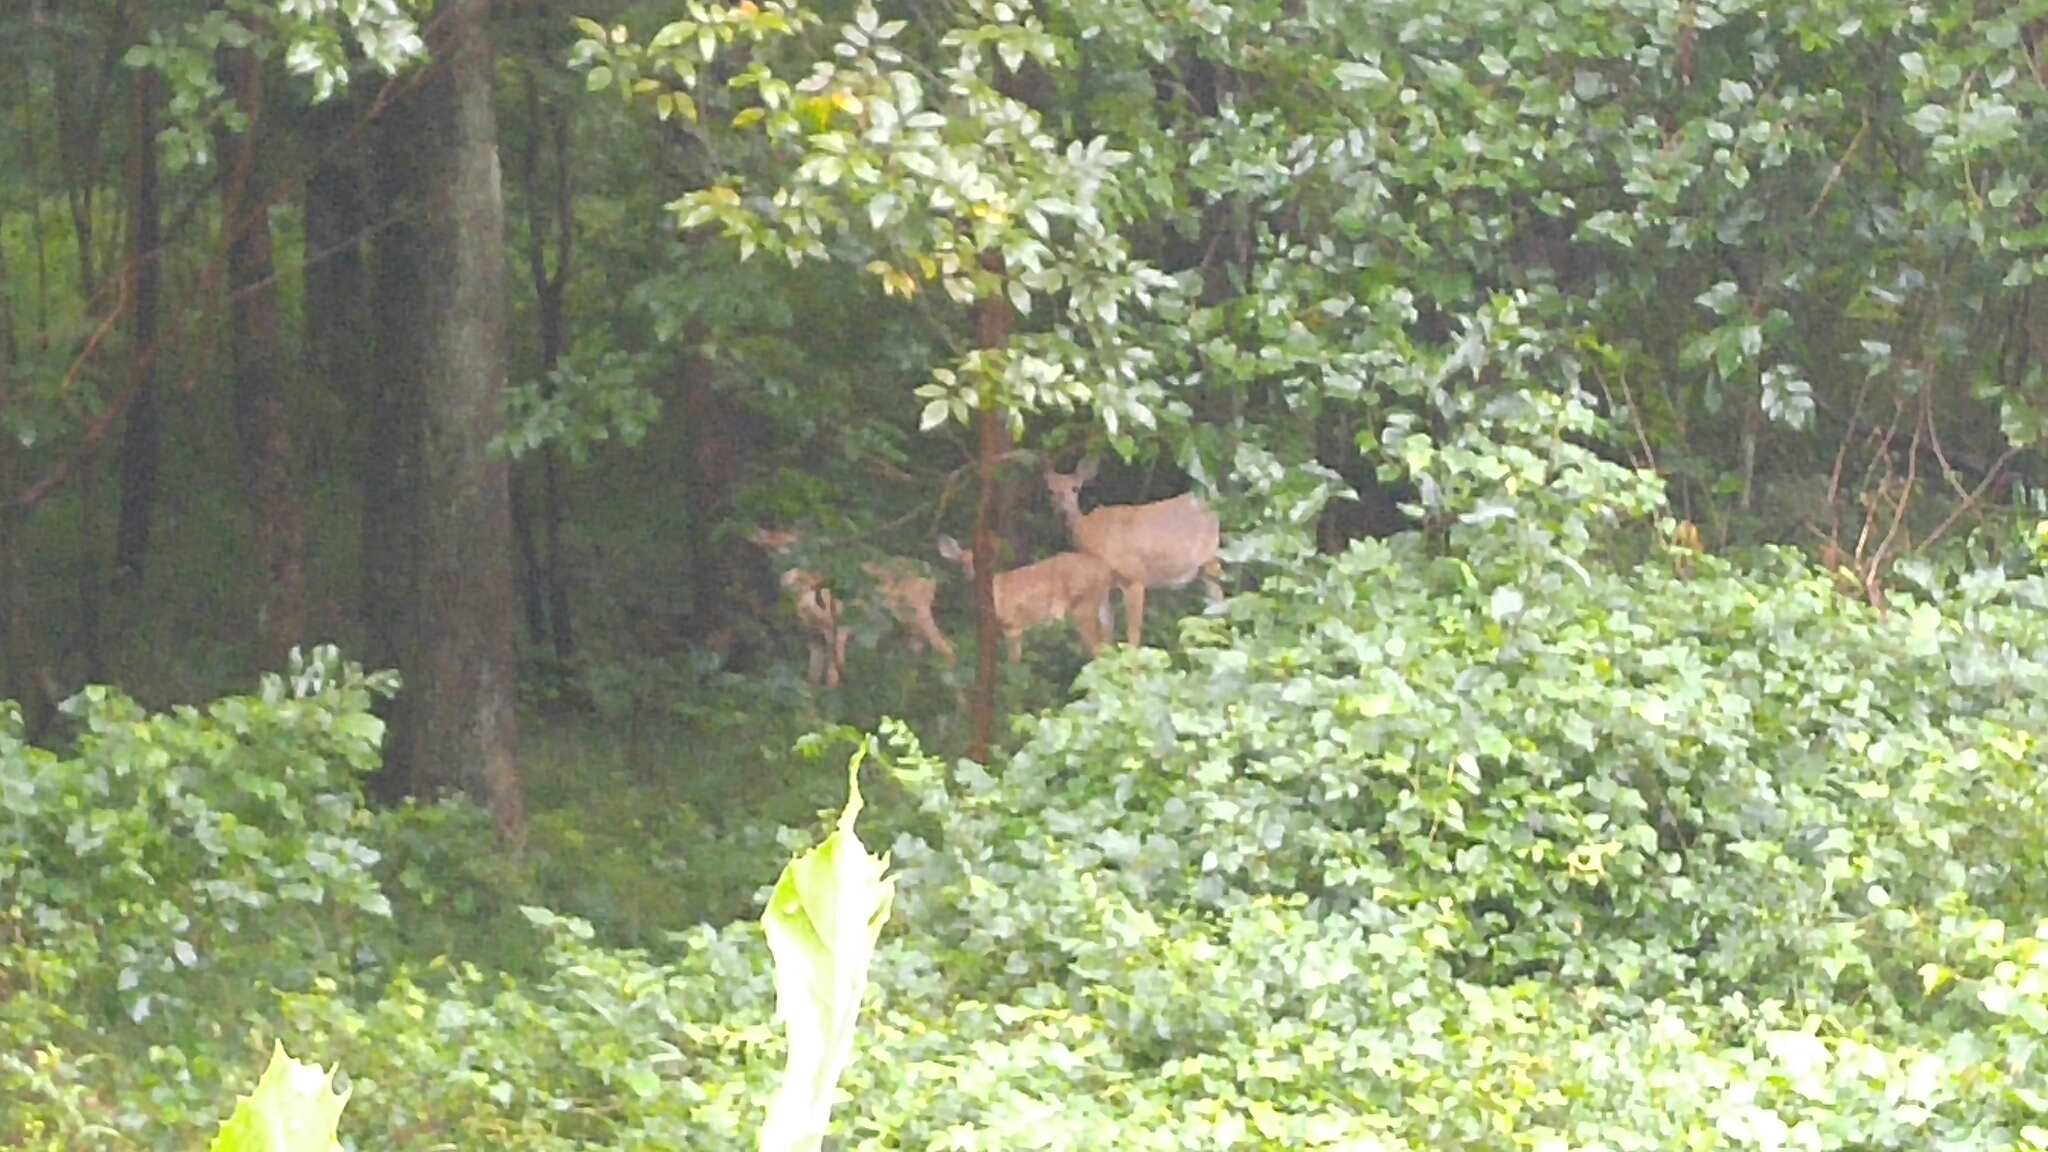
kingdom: Animalia
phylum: Chordata
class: Mammalia
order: Artiodactyla
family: Cervidae
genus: Odocoileus
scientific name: Odocoileus virginianus
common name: White-tailed deer
